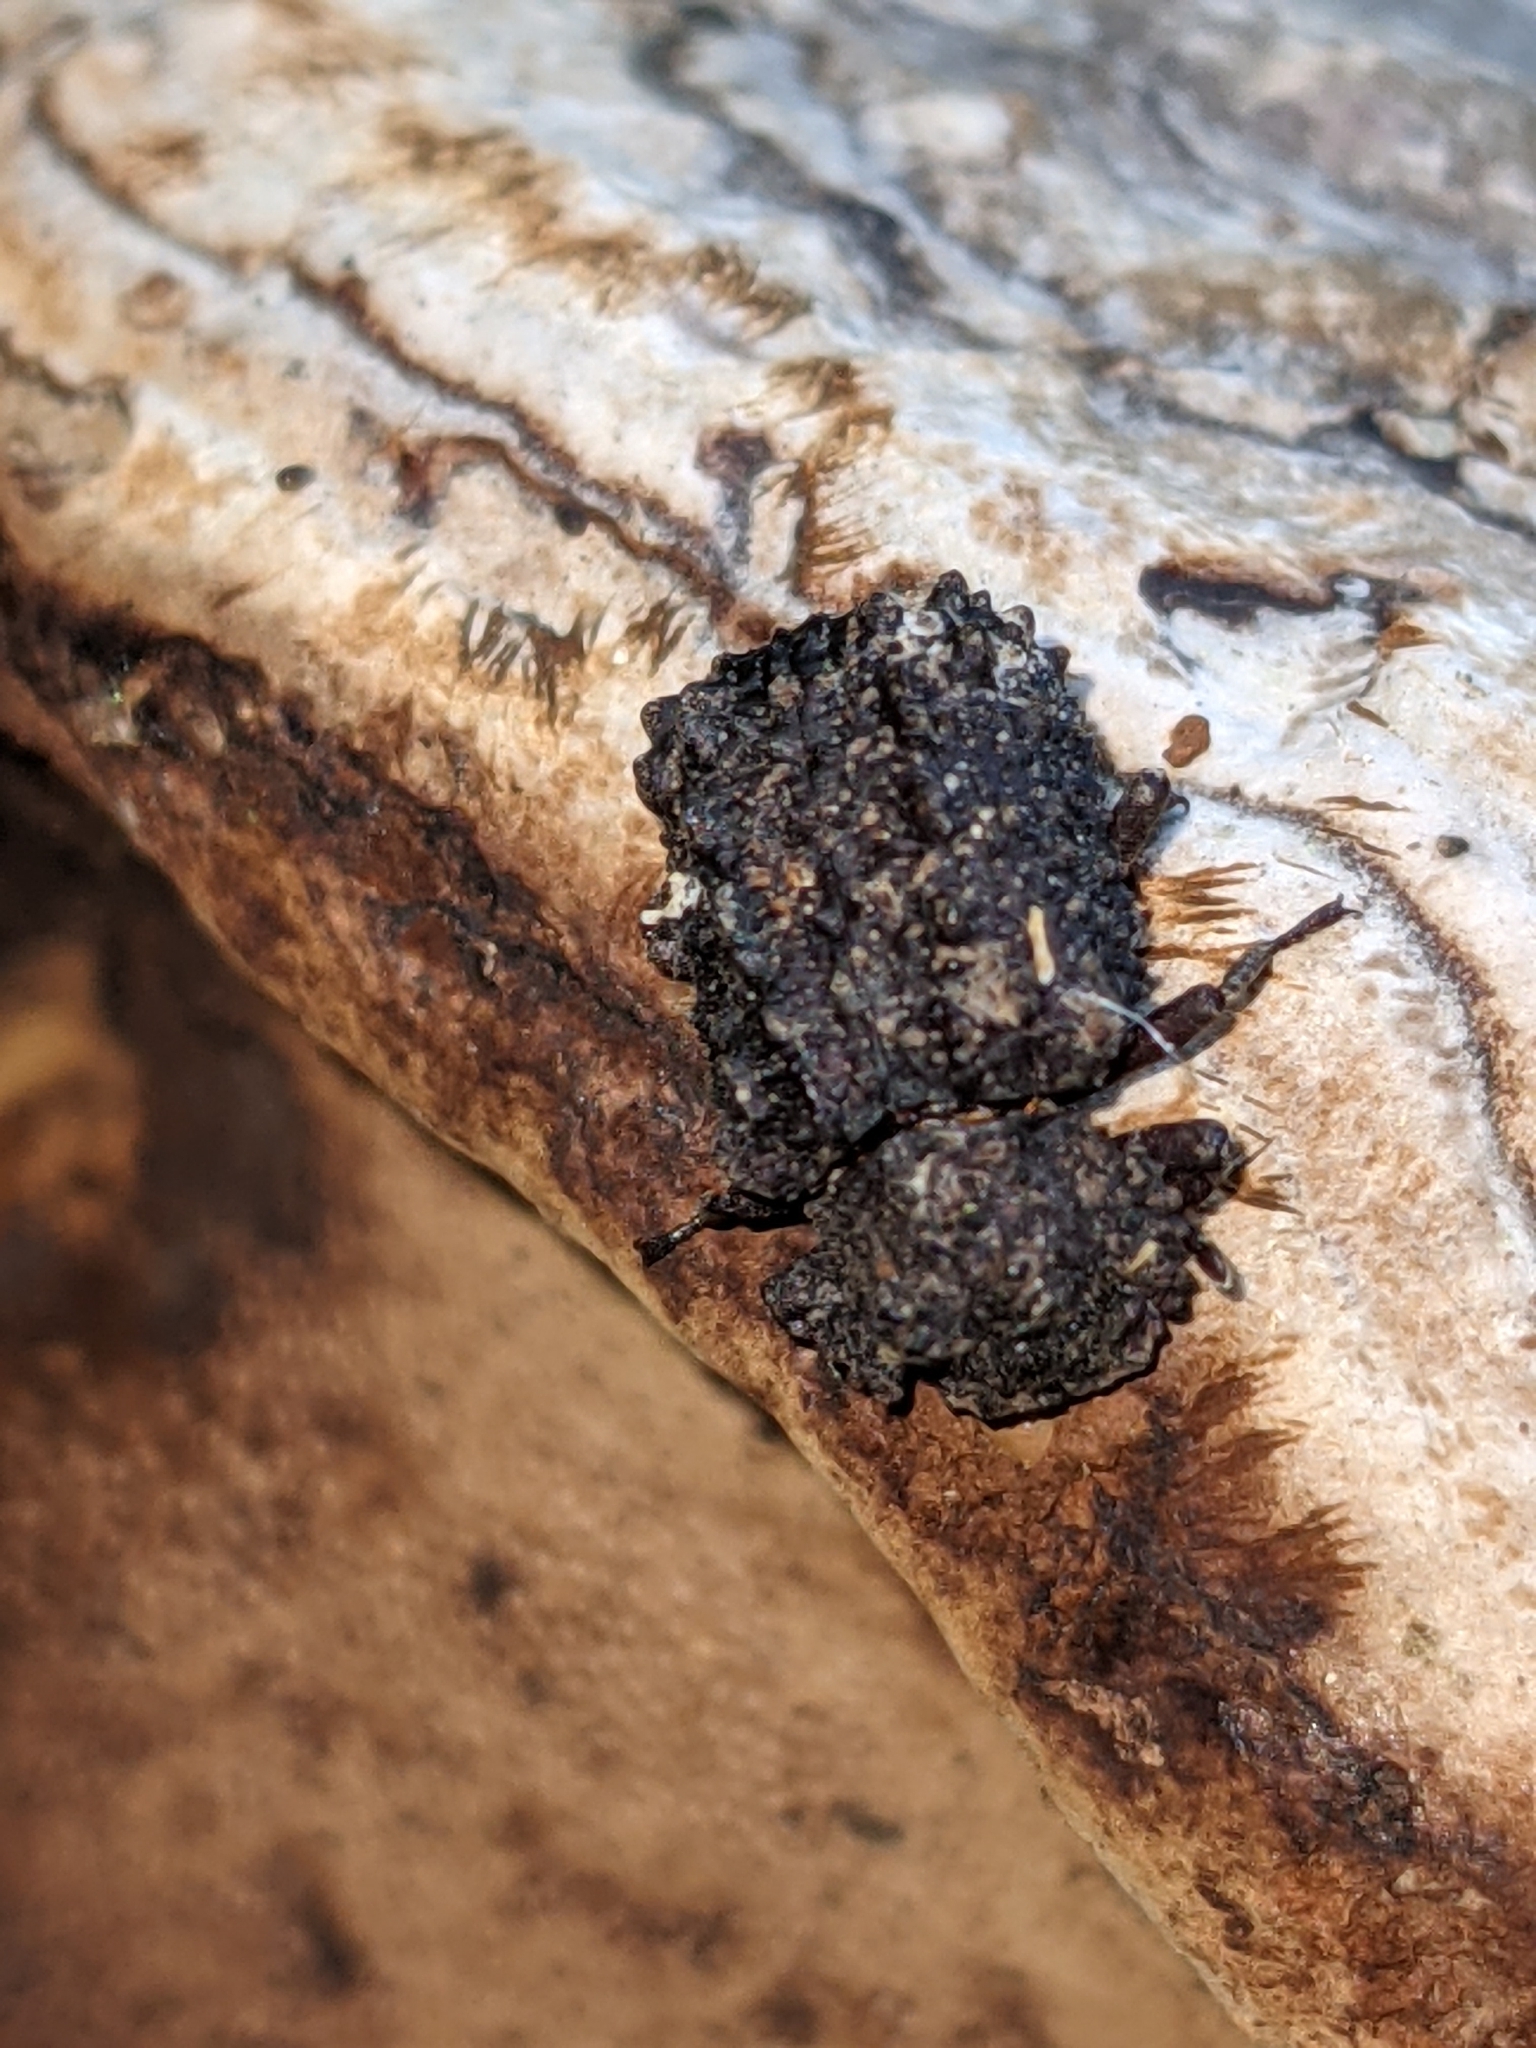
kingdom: Animalia
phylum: Arthropoda
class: Insecta
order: Coleoptera
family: Tenebrionidae
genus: Gnatocerus
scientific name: Gnatocerus cornutus
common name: Broad-horned flour beetle
